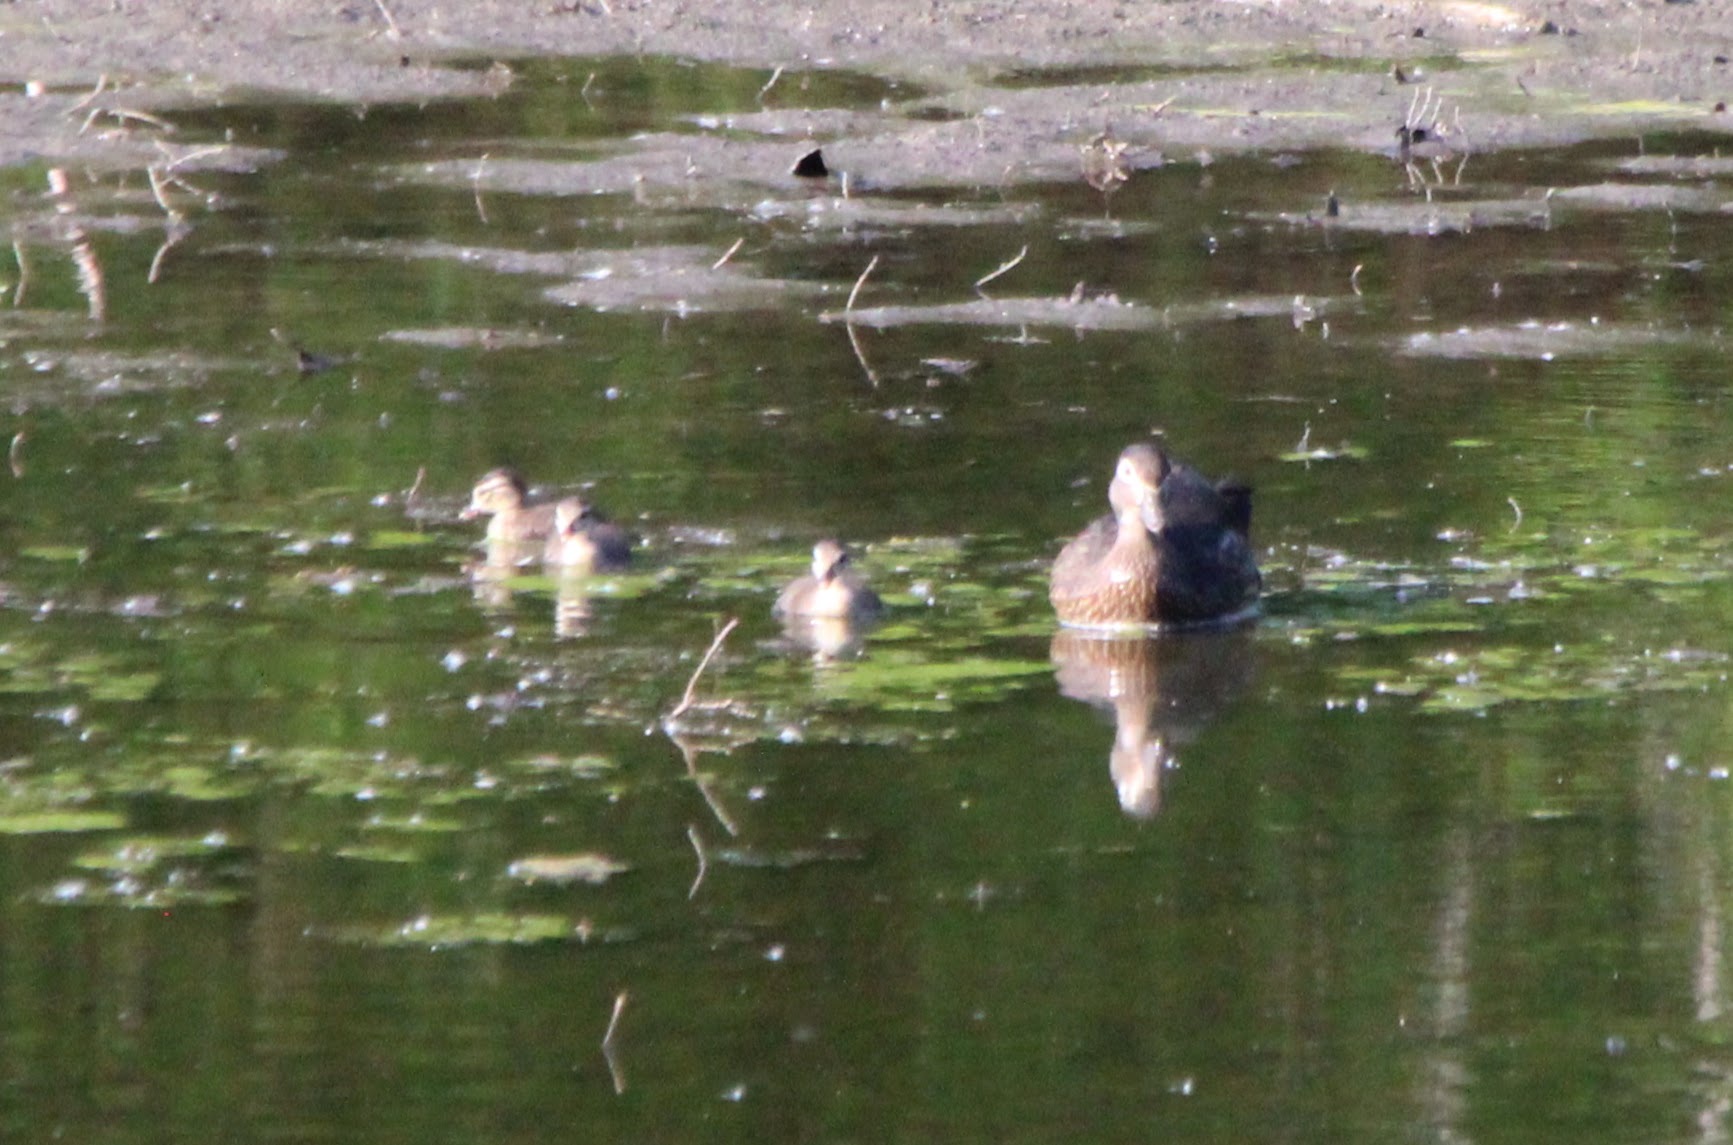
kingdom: Animalia
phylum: Chordata
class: Aves
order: Anseriformes
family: Anatidae
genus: Aix
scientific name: Aix sponsa
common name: Wood duck
